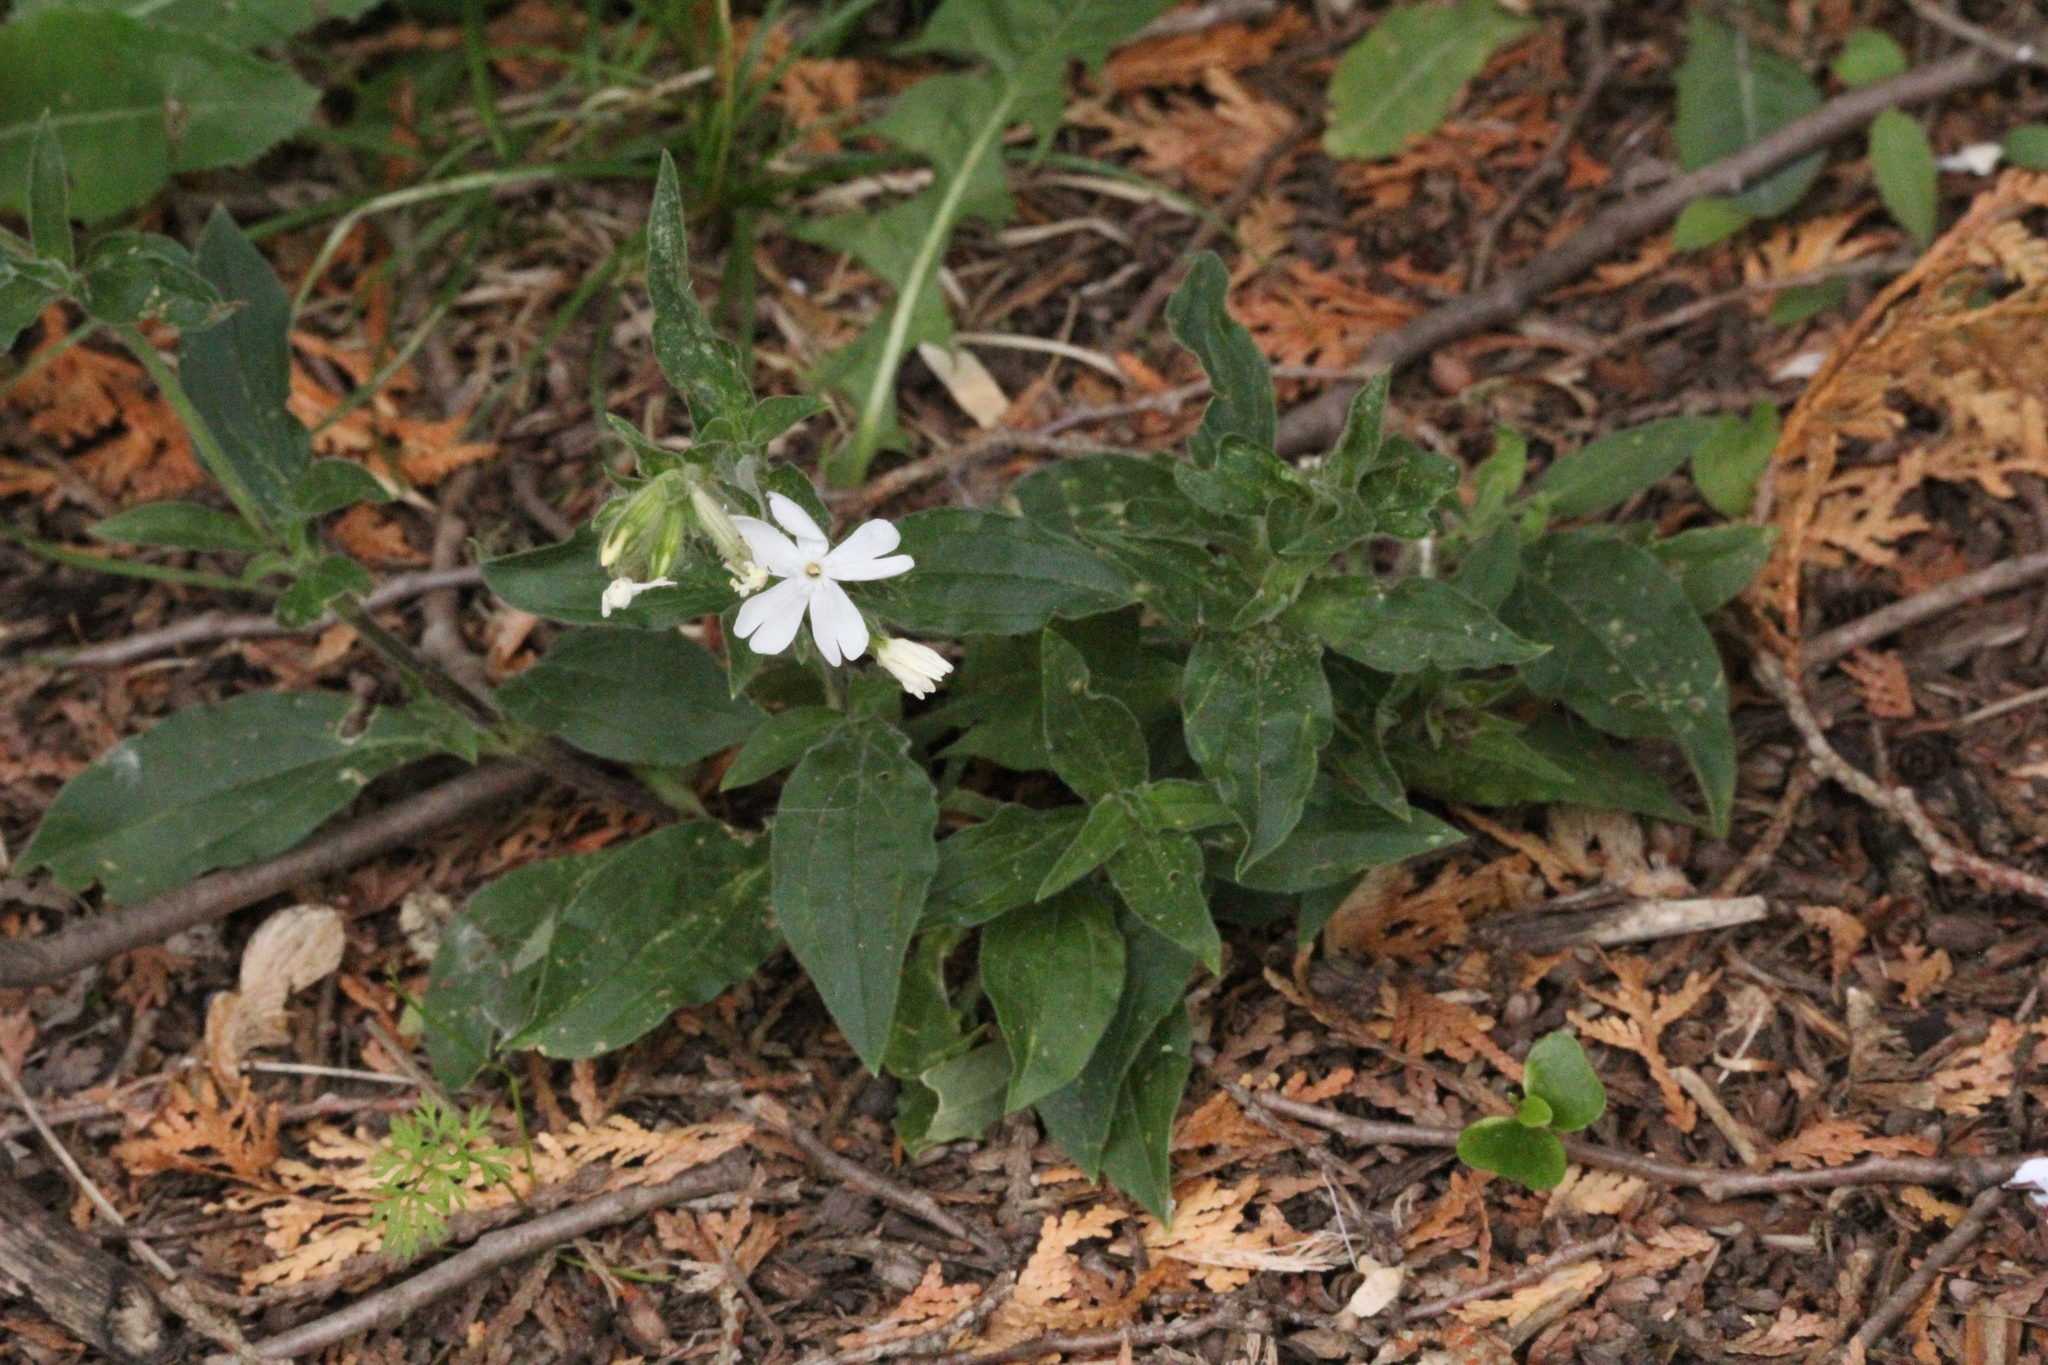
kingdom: Plantae
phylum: Tracheophyta
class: Magnoliopsida
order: Caryophyllales
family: Caryophyllaceae
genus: Silene
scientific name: Silene latifolia
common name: White campion
